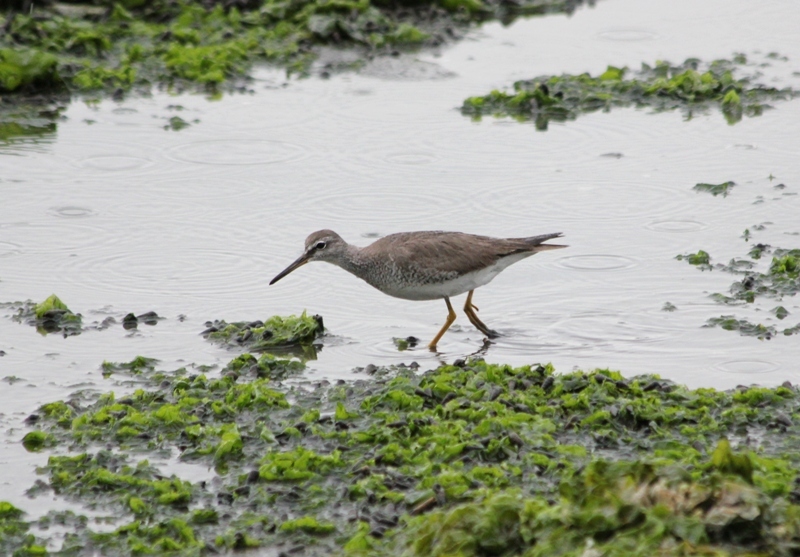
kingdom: Animalia
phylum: Chordata
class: Aves
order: Charadriiformes
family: Scolopacidae
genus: Tringa
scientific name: Tringa brevipes
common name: Grey-tailed tattler
